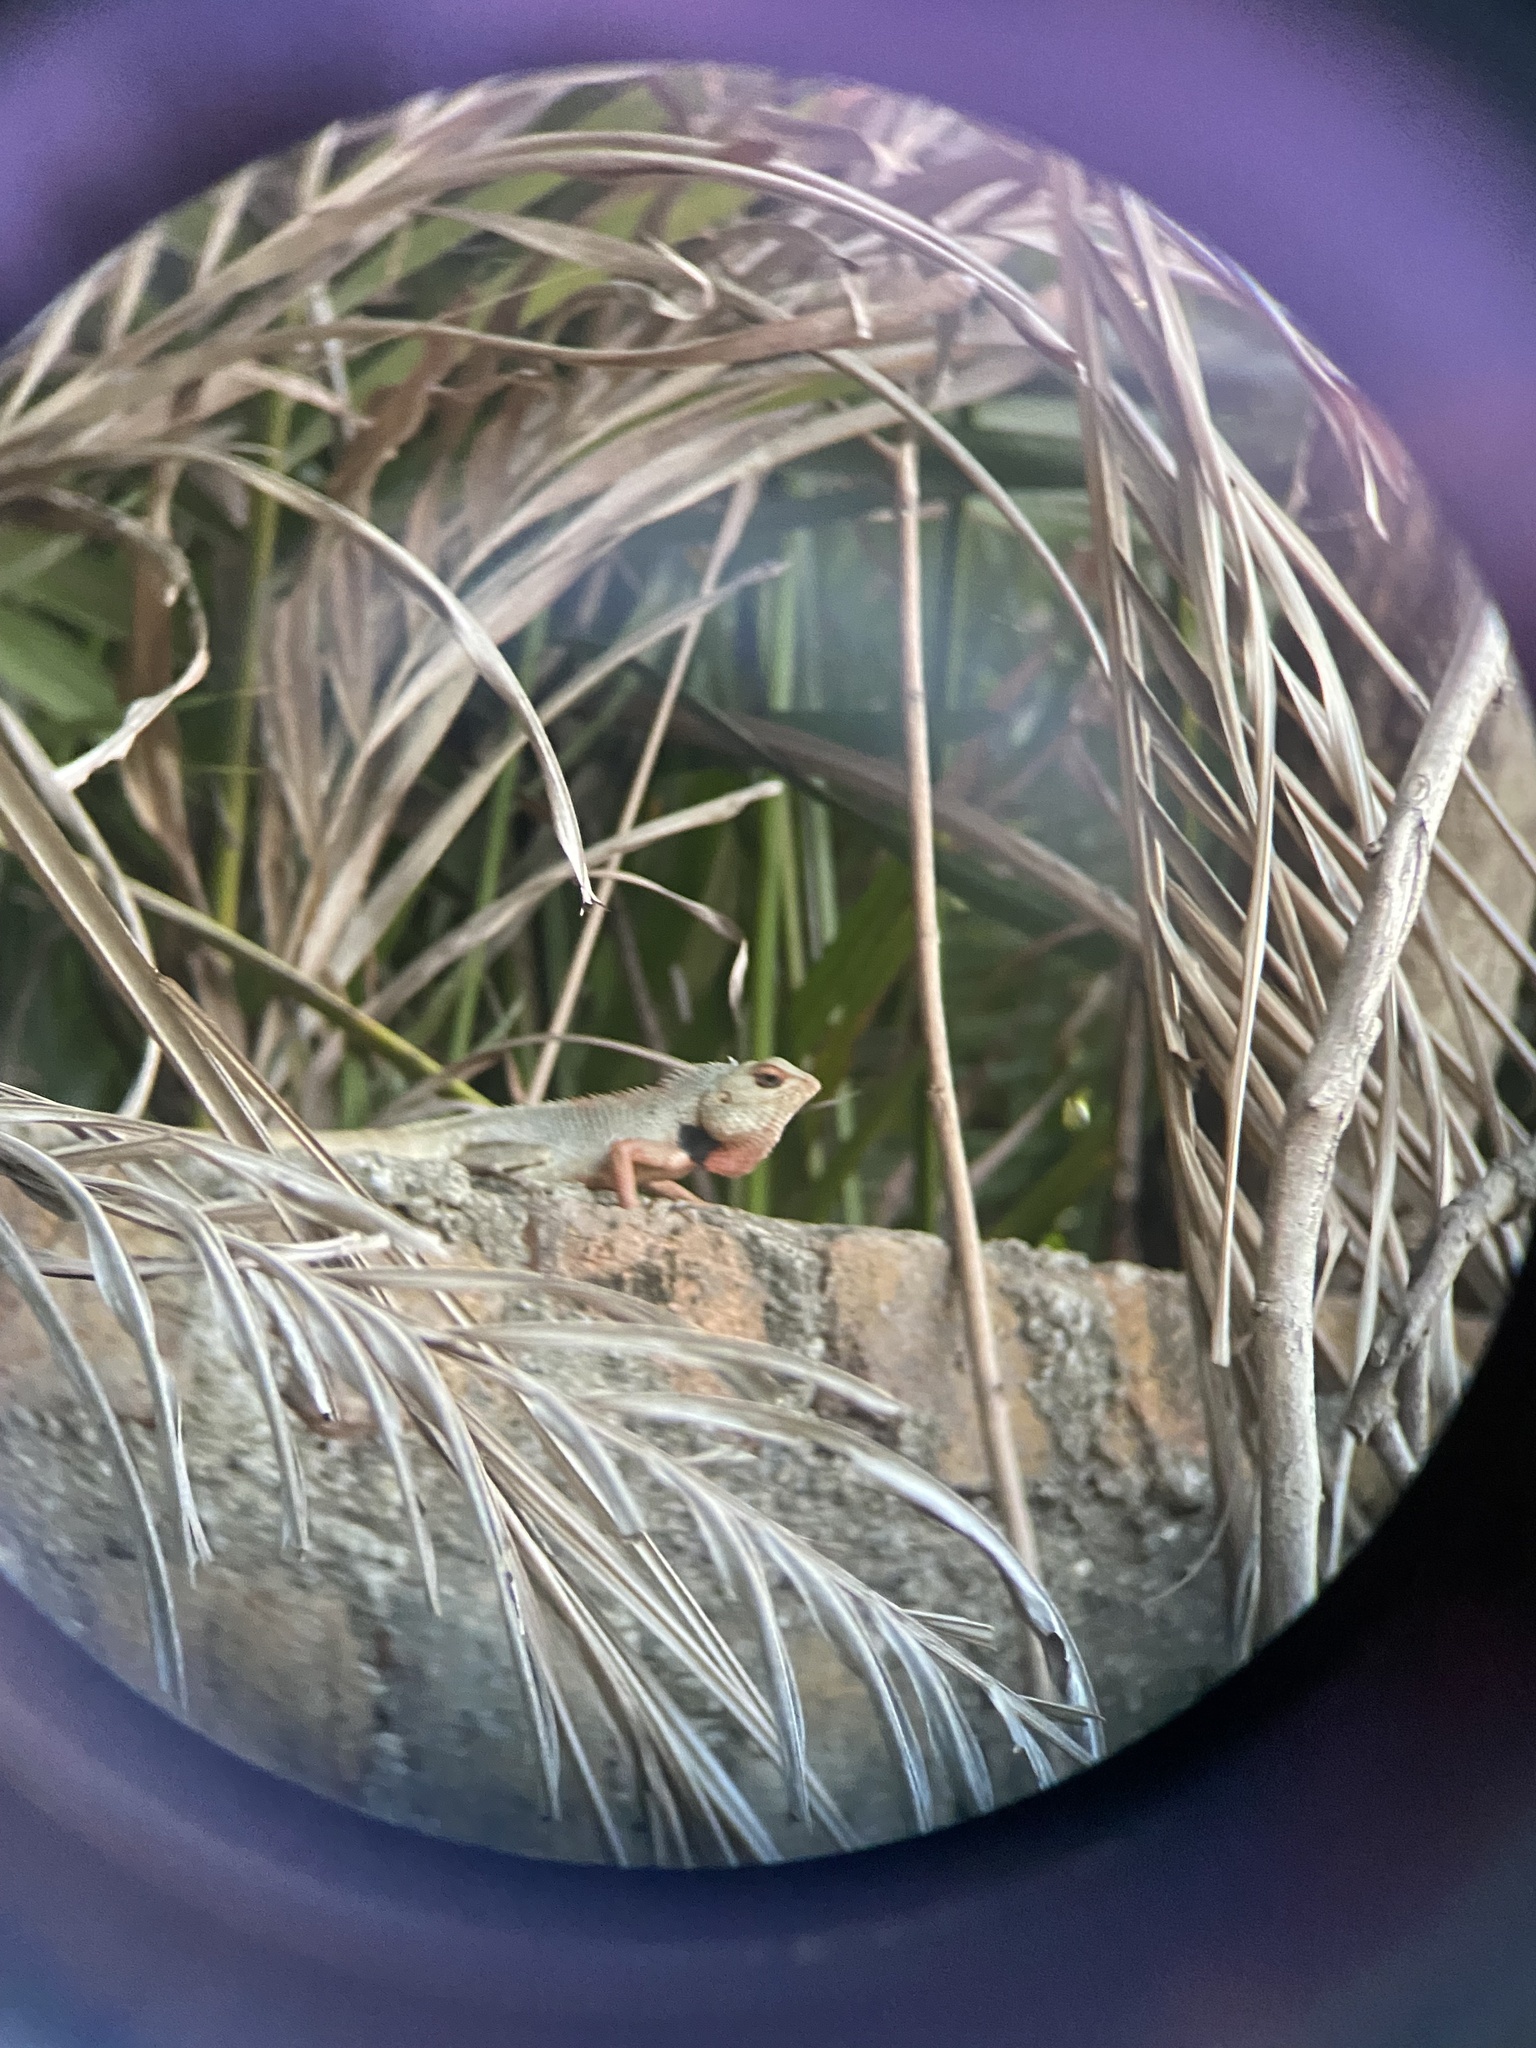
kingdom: Animalia
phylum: Chordata
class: Squamata
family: Agamidae
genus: Calotes
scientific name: Calotes versicolor
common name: Oriental garden lizard
